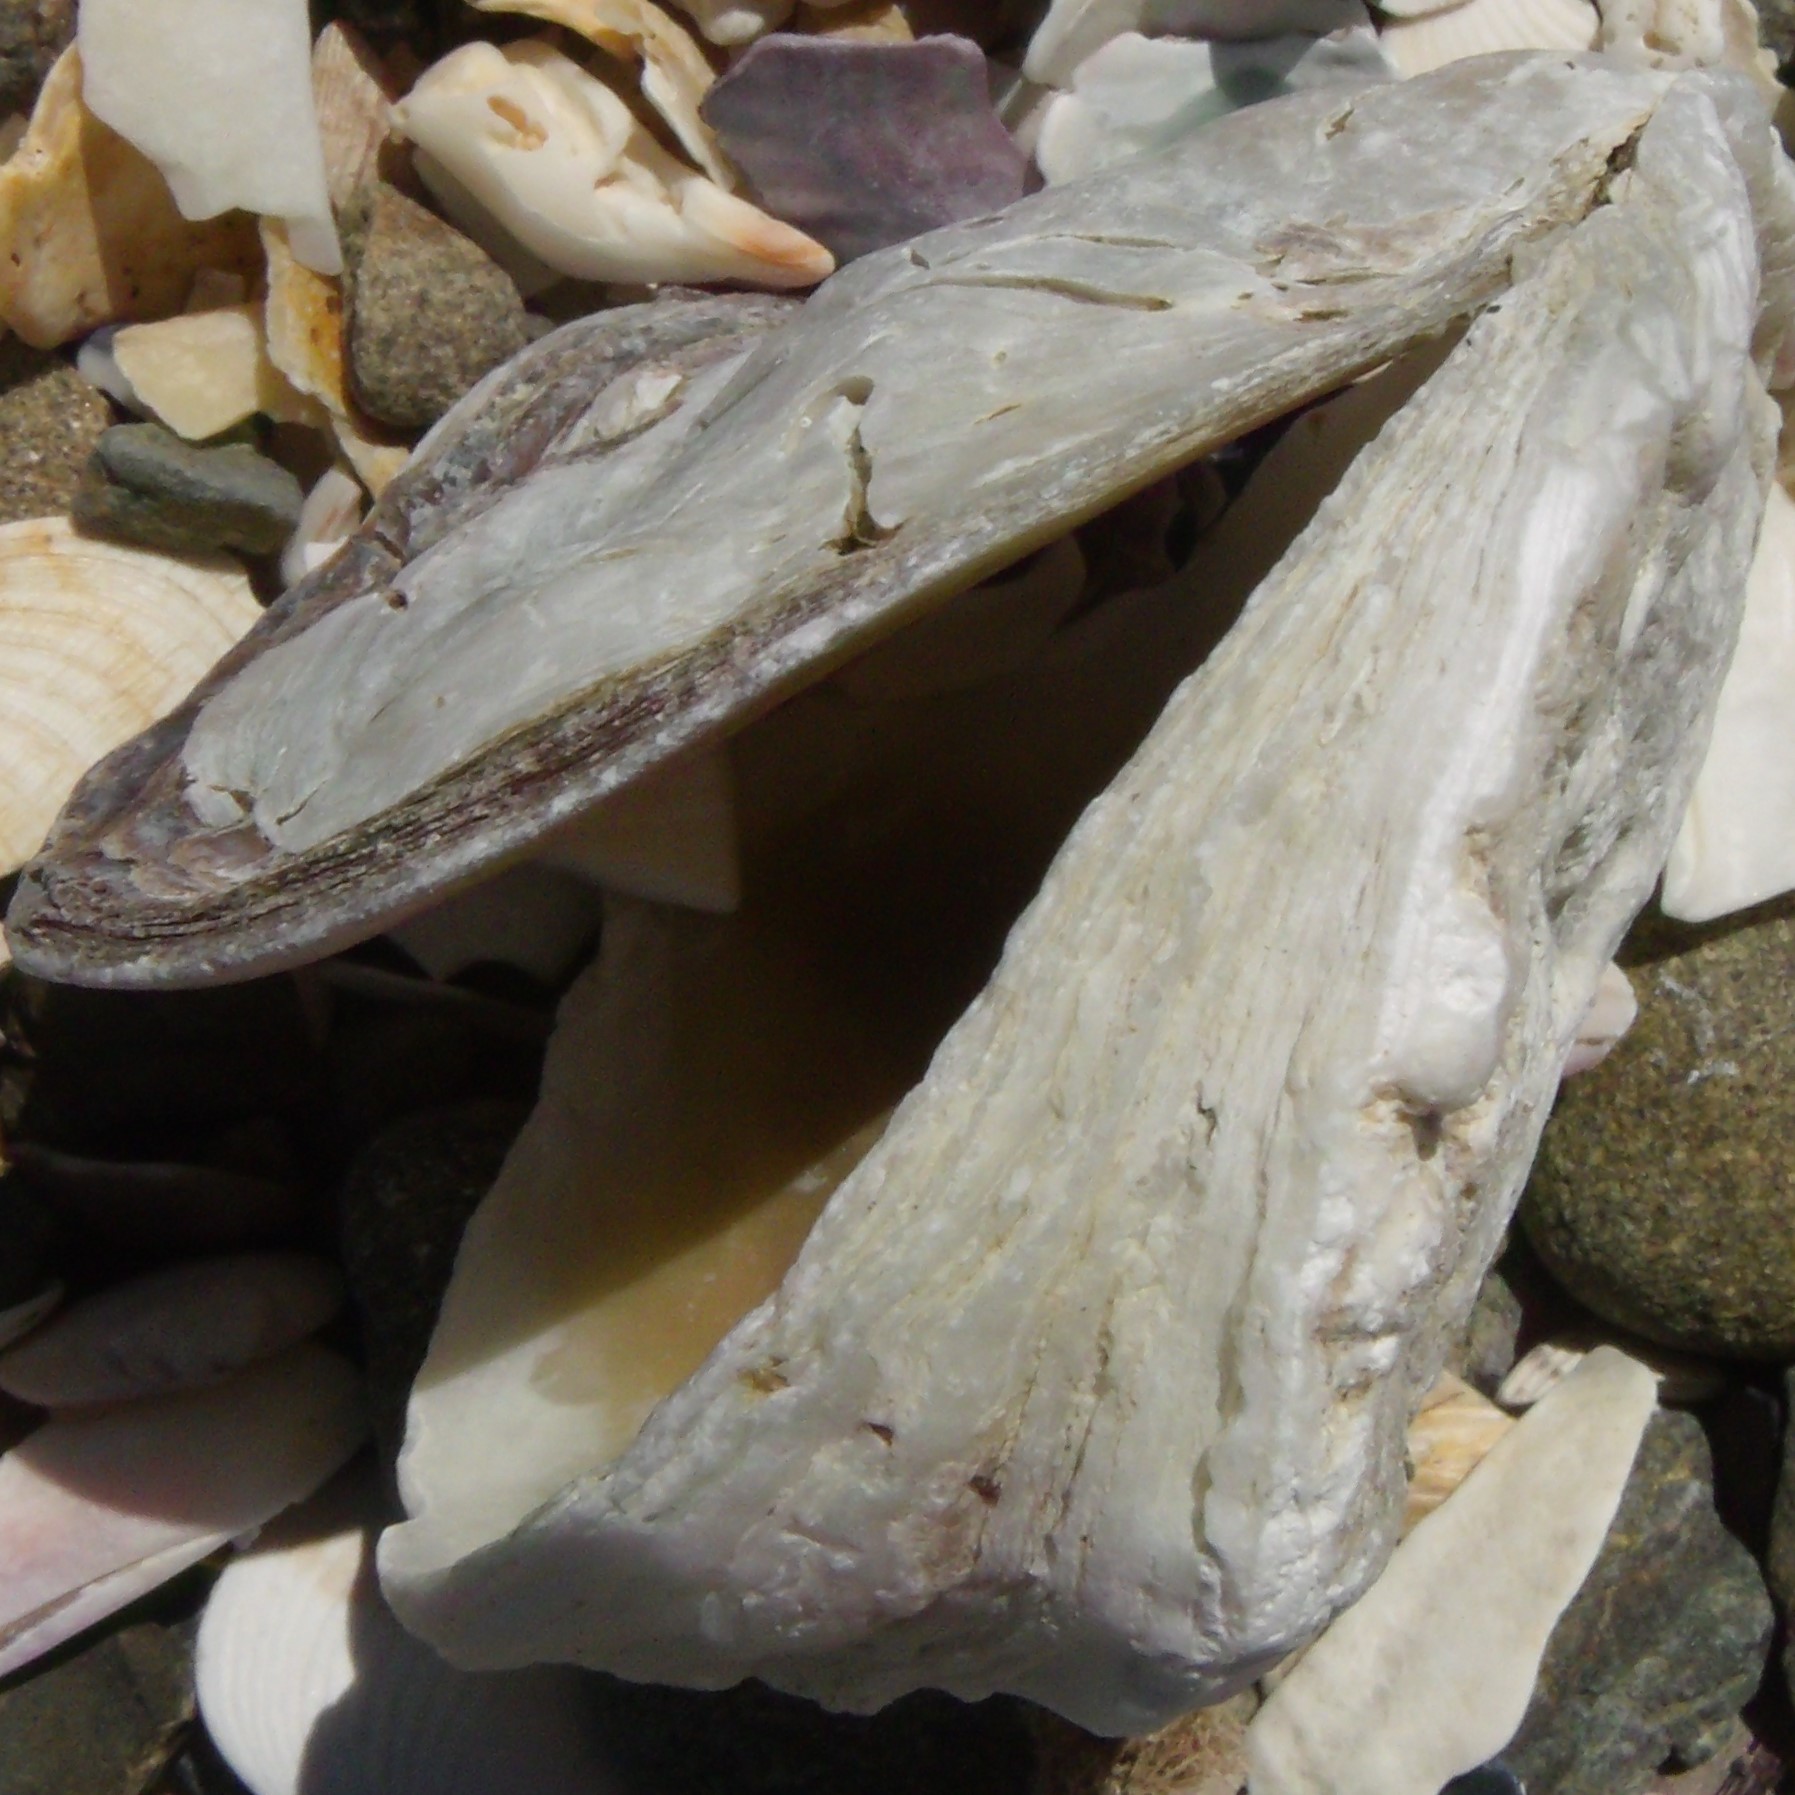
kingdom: Animalia
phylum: Mollusca
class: Bivalvia
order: Ostreida
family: Ostreidae
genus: Ostrea
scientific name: Ostrea chilensis
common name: Chilean oyster
